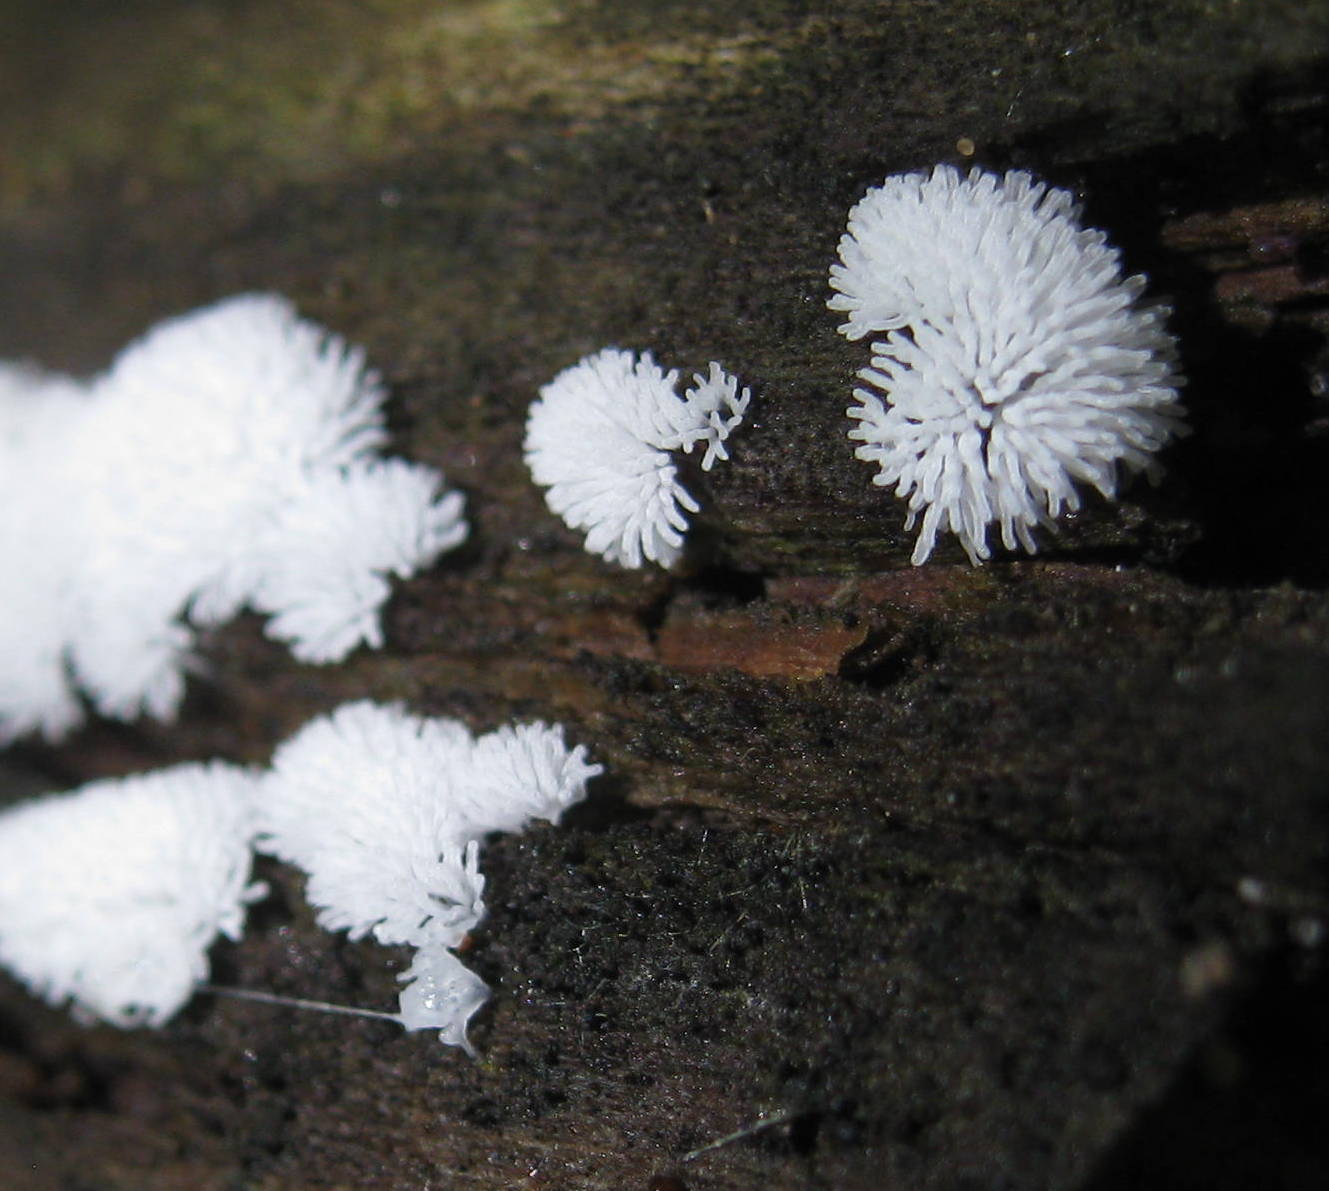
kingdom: Protozoa
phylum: Mycetozoa
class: Protosteliomycetes
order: Ceratiomyxales
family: Ceratiomyxaceae
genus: Ceratiomyxa
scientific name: Ceratiomyxa fruticulosa
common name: Honeycomb coral slime mold
